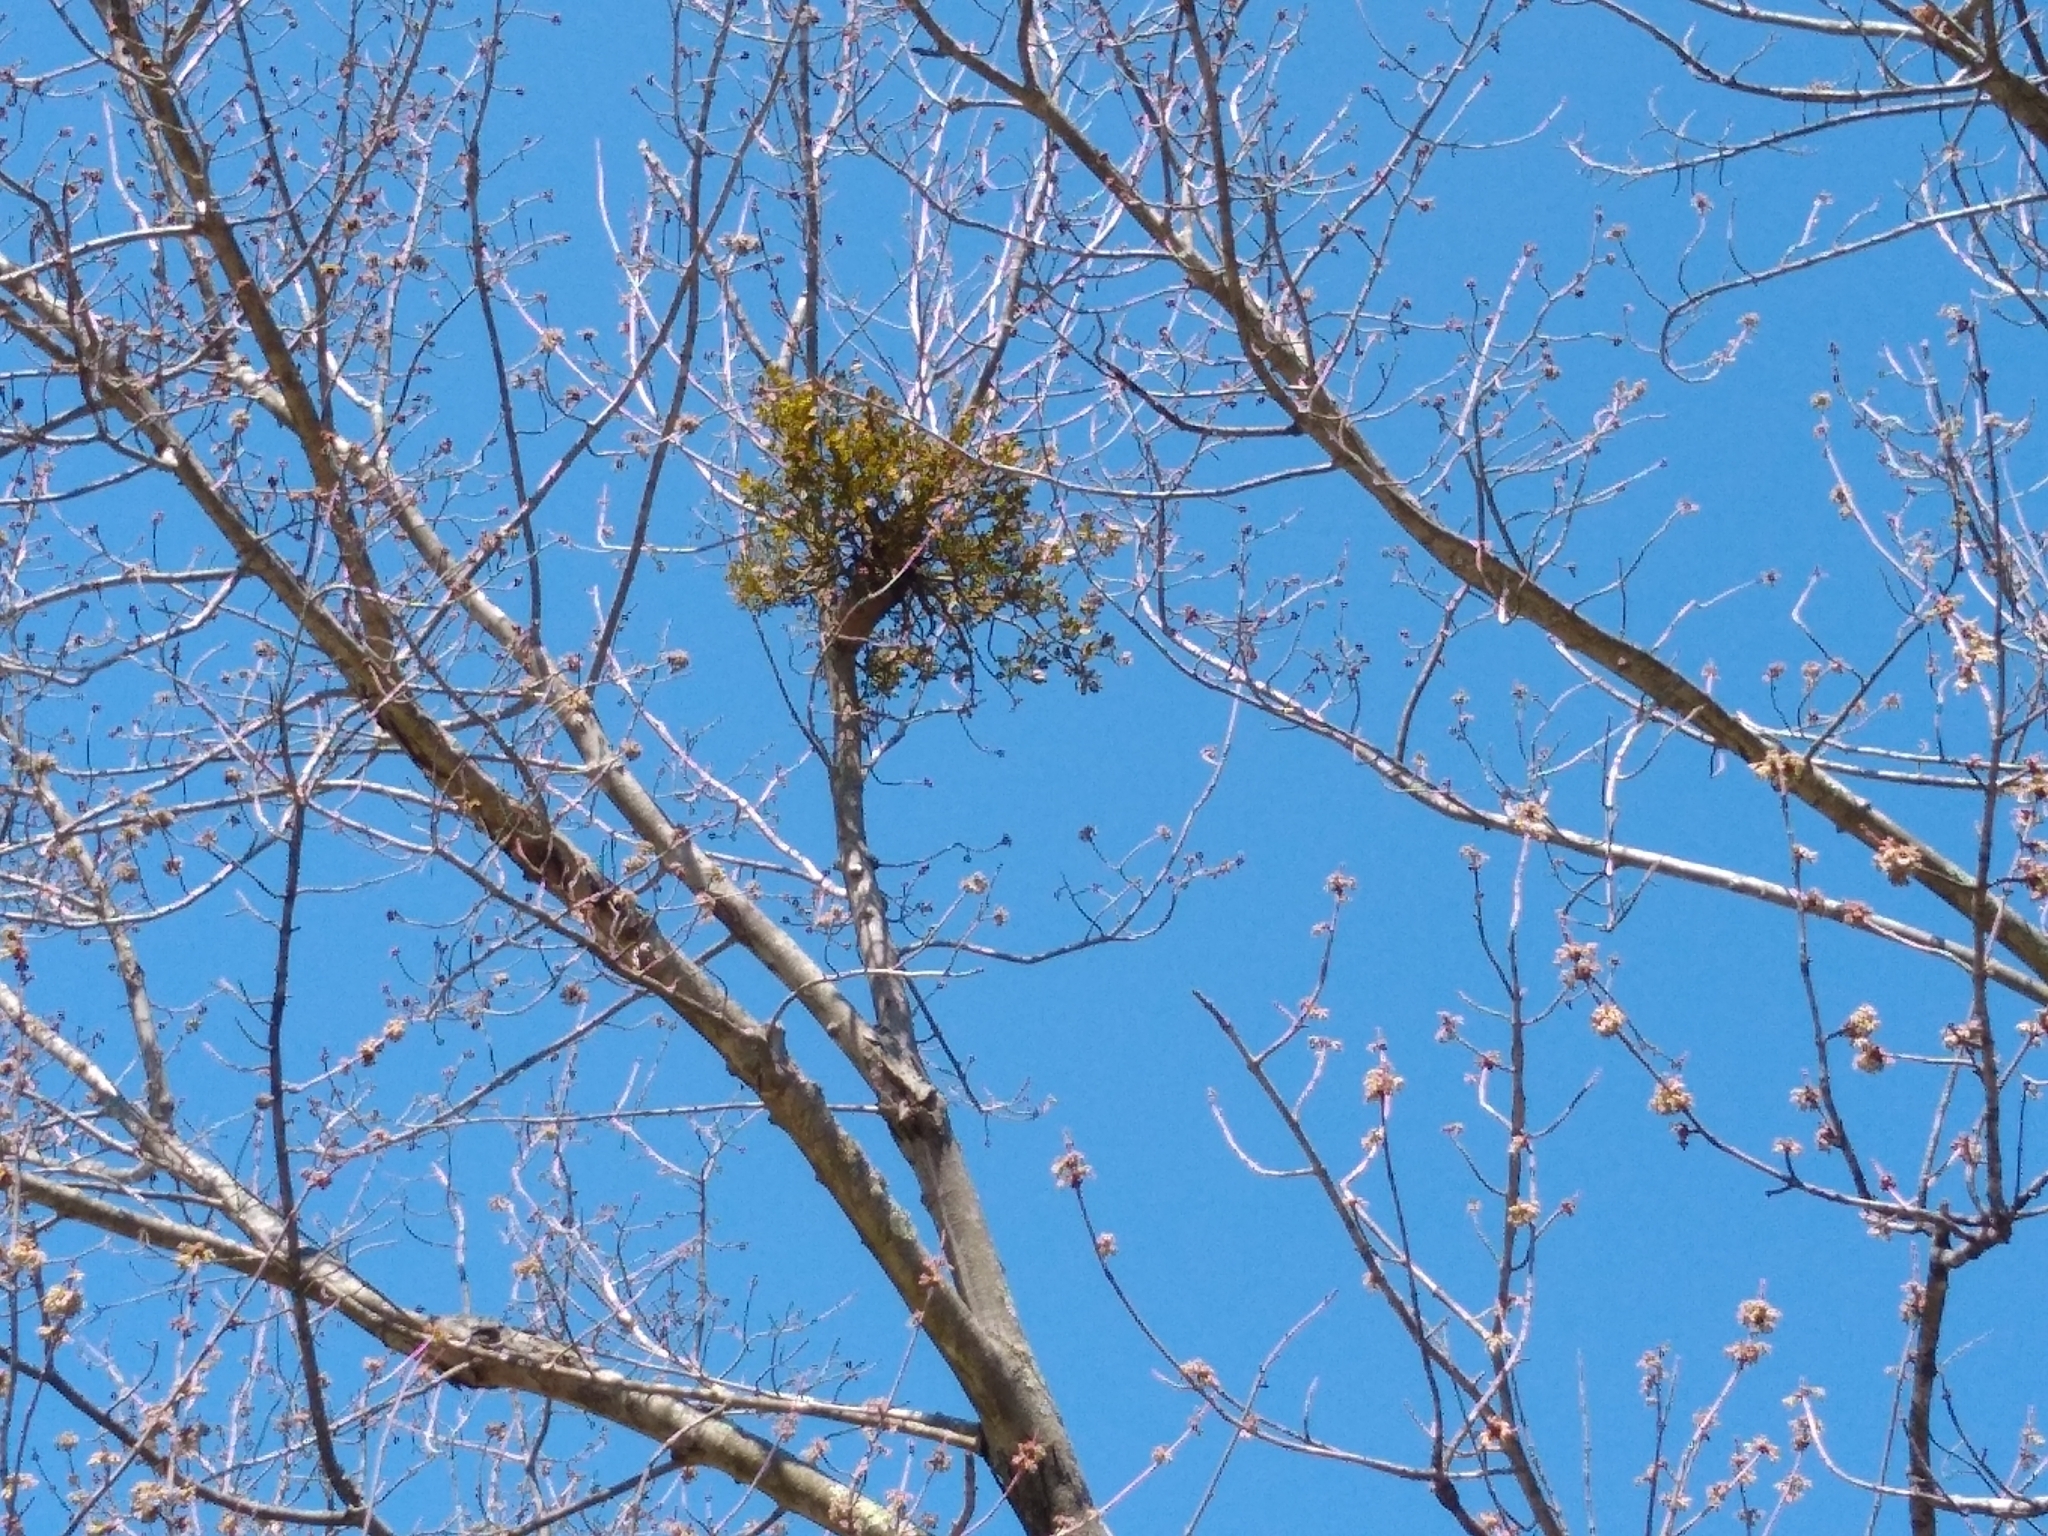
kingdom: Plantae
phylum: Tracheophyta
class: Magnoliopsida
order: Santalales
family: Viscaceae
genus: Phoradendron
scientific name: Phoradendron leucarpum
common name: Pacific mistletoe
